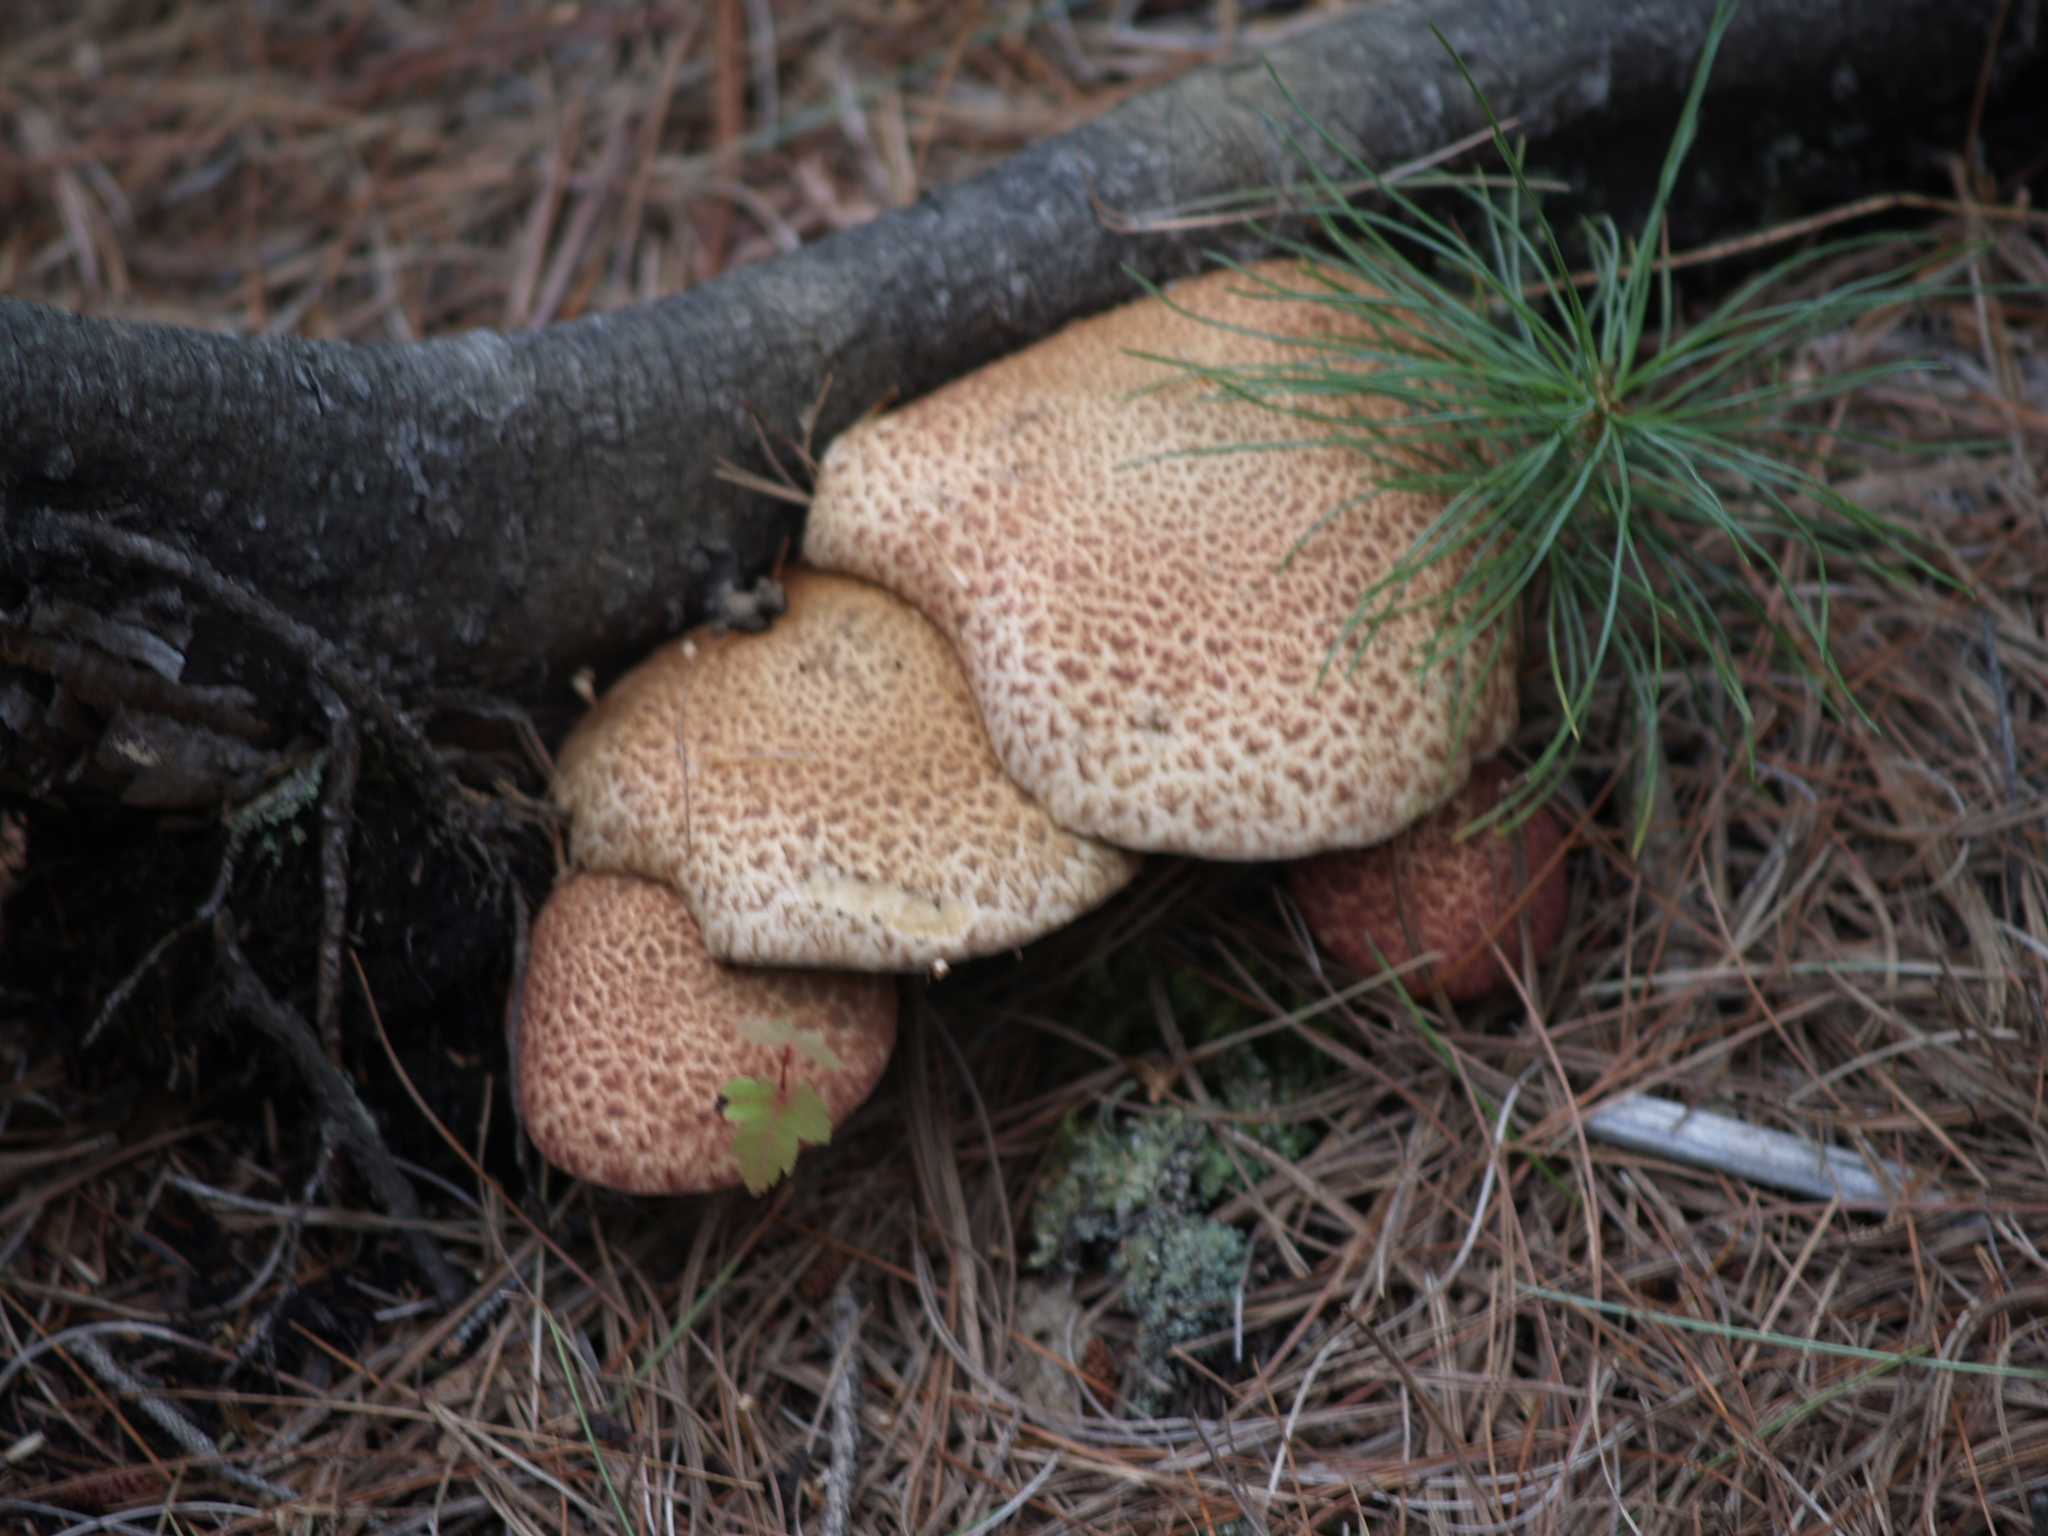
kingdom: Plantae
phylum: Tracheophyta
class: Pinopsida
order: Pinales
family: Pinaceae
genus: Pinus
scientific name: Pinus strobus
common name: Weymouth pine
